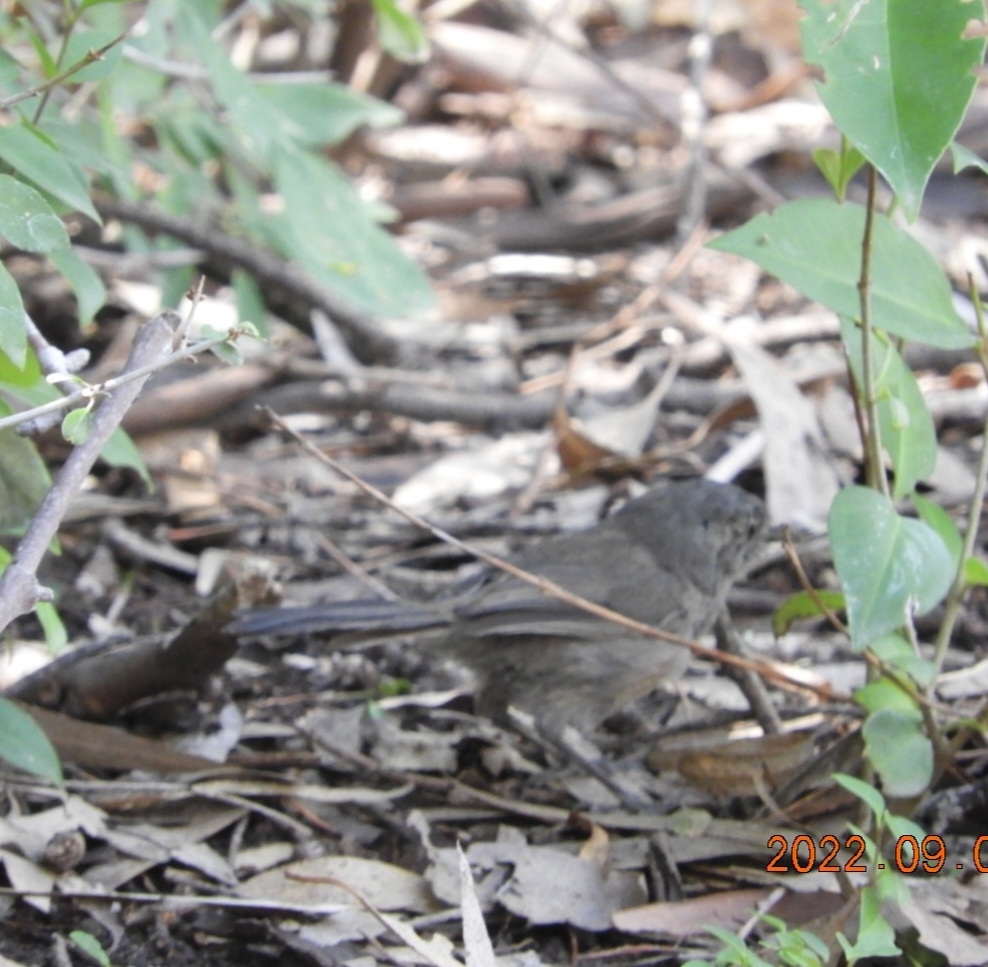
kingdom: Animalia
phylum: Chordata
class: Aves
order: Passeriformes
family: Sylviidae
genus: Chamaea
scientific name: Chamaea fasciata
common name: Wrentit
